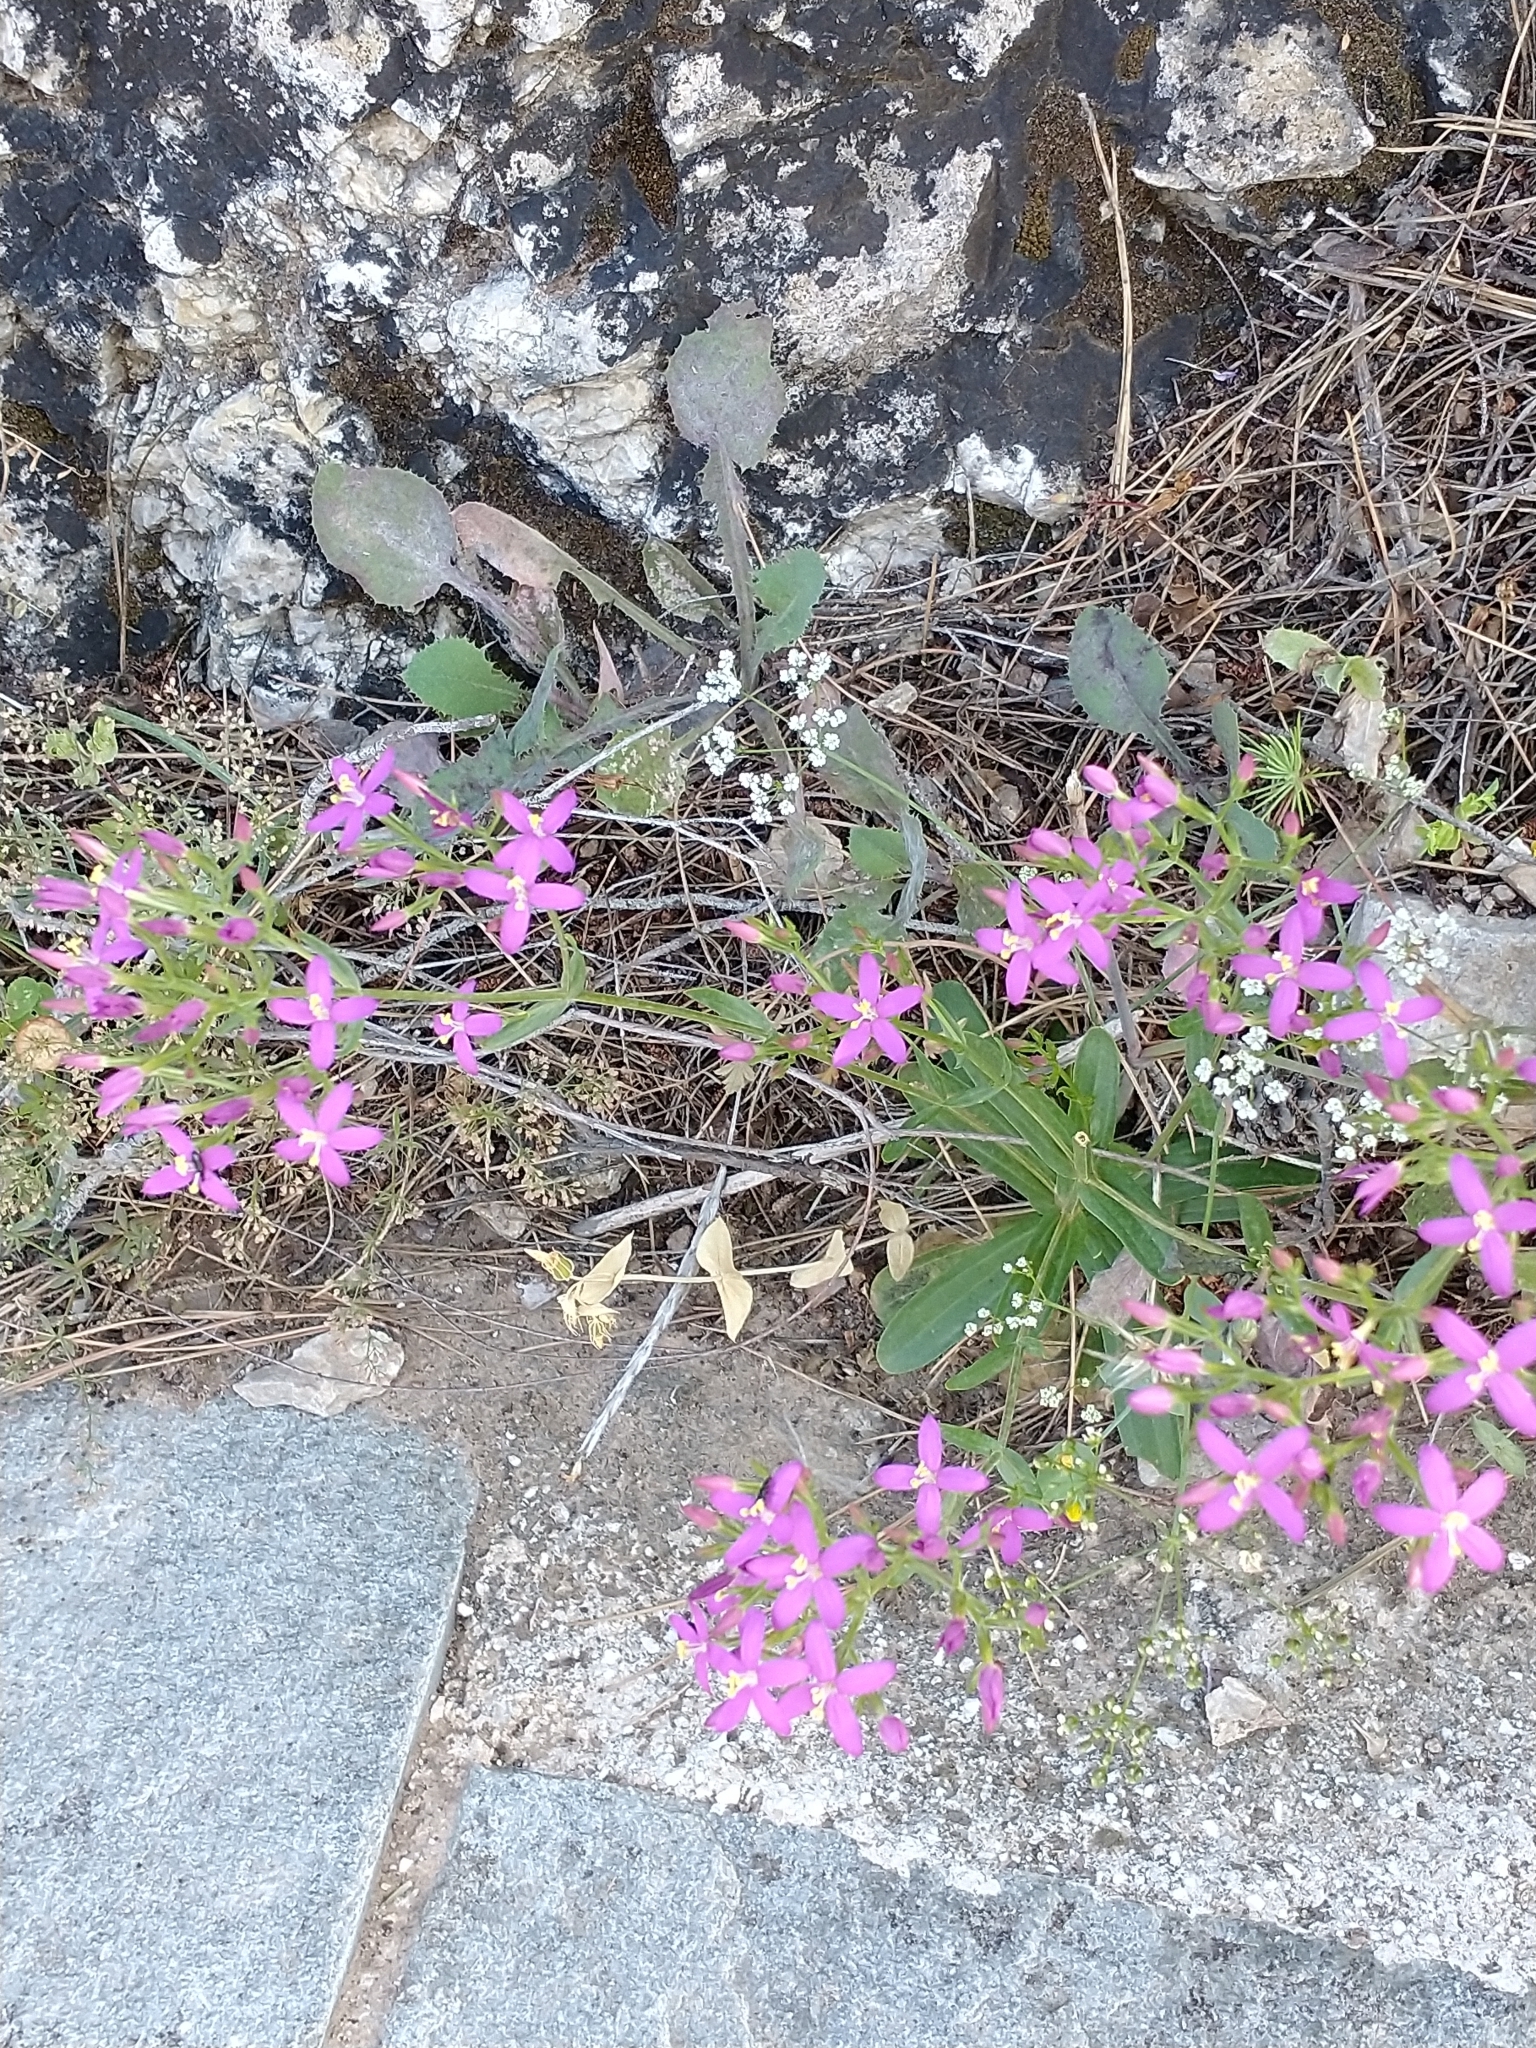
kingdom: Plantae
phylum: Tracheophyta
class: Magnoliopsida
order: Gentianales
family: Gentianaceae
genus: Centaurium
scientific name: Centaurium tenuiflorum
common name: Slender centaury
